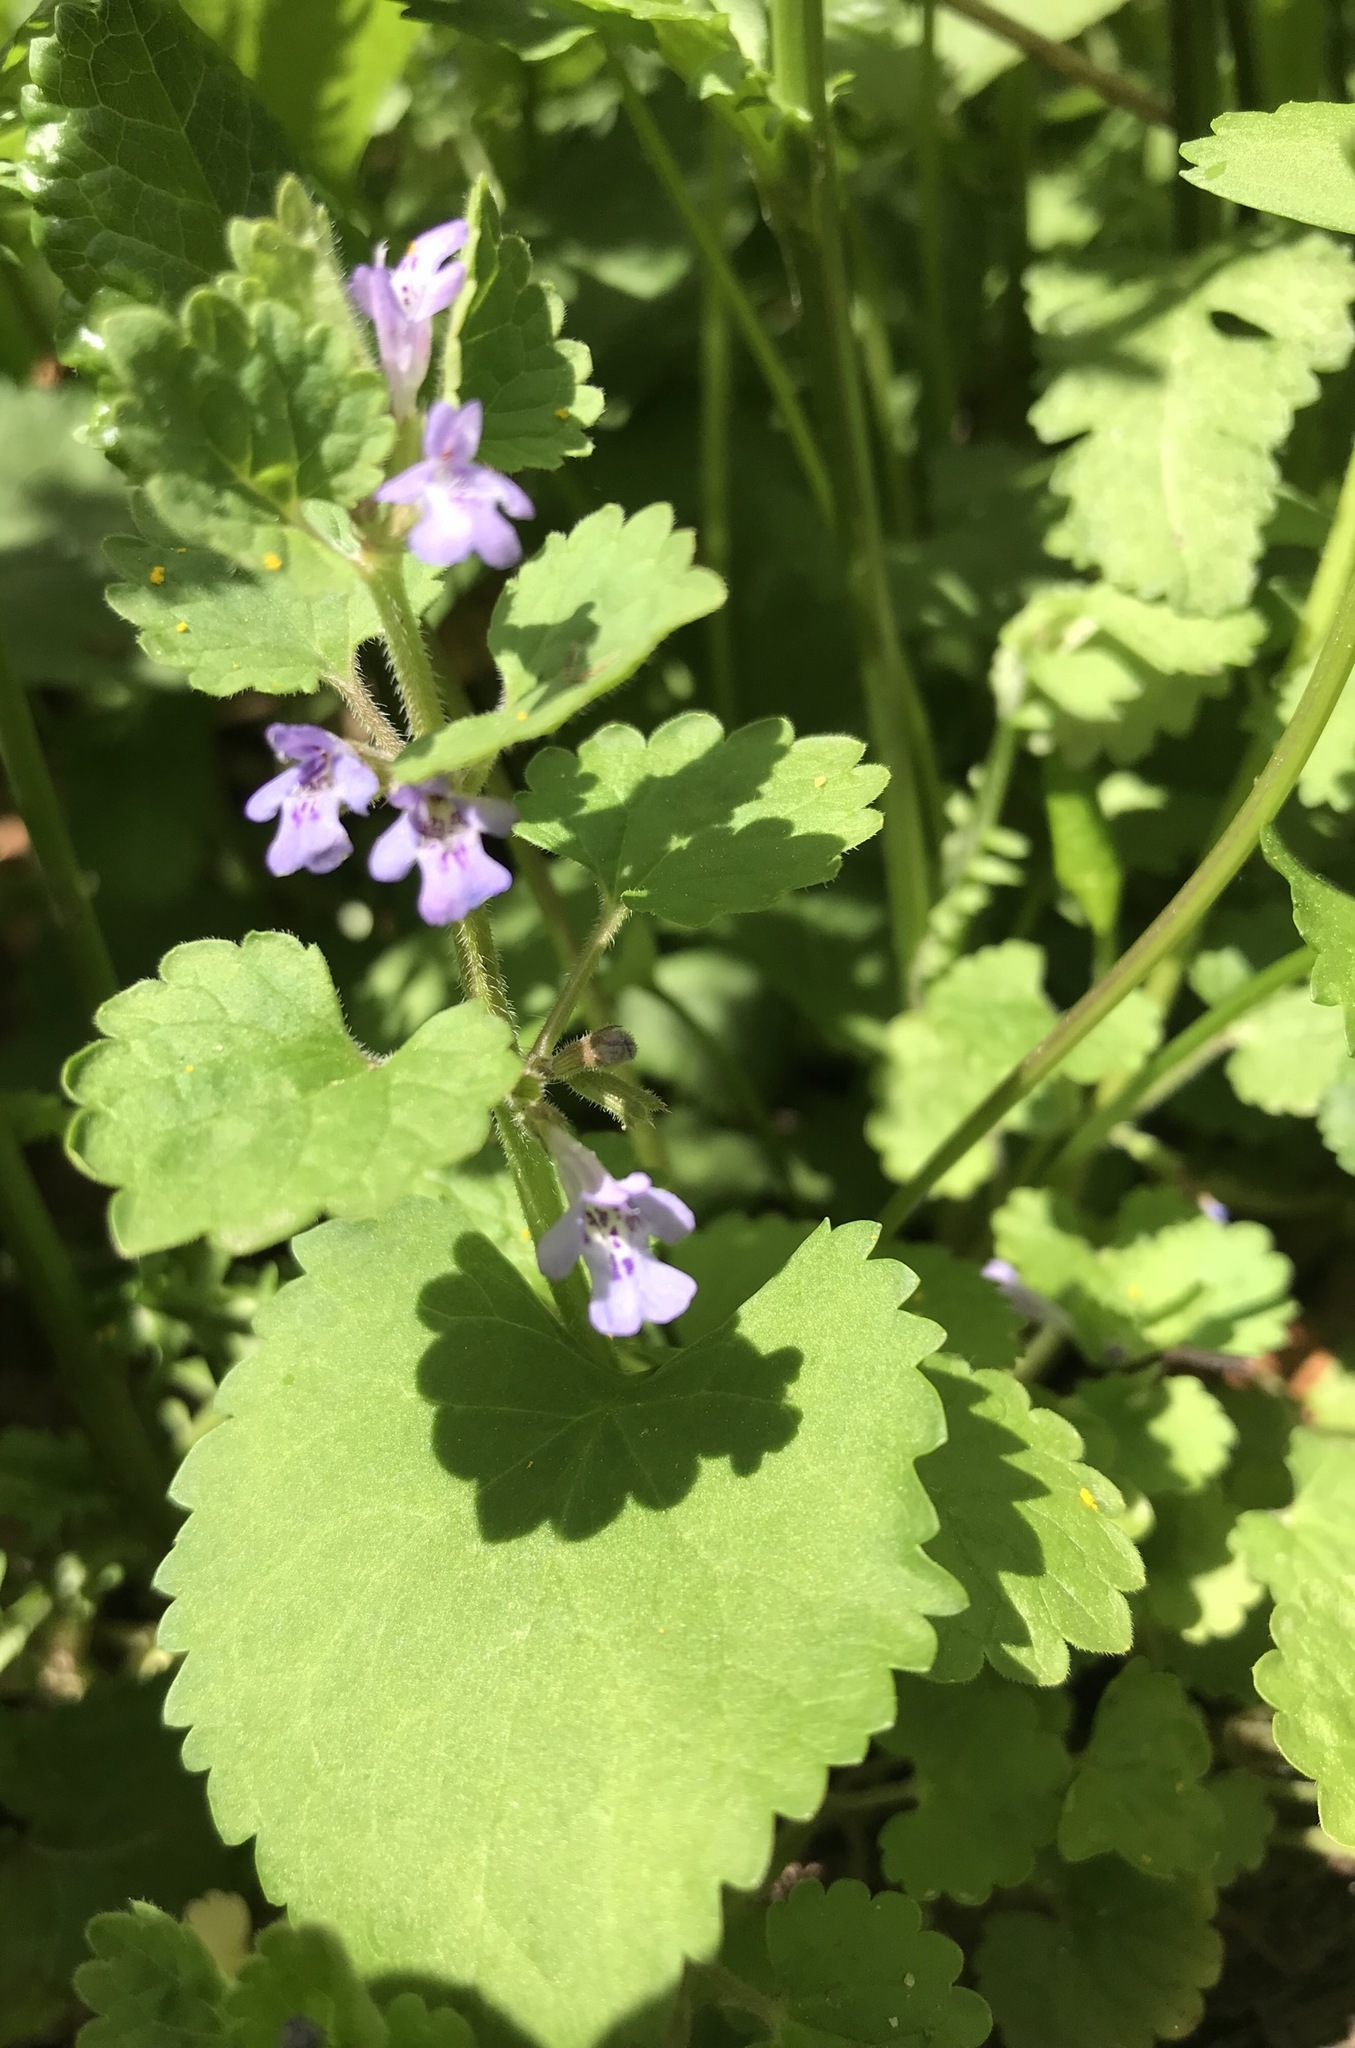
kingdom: Plantae
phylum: Tracheophyta
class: Magnoliopsida
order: Lamiales
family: Lamiaceae
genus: Glechoma
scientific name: Glechoma hederacea
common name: Ground ivy
